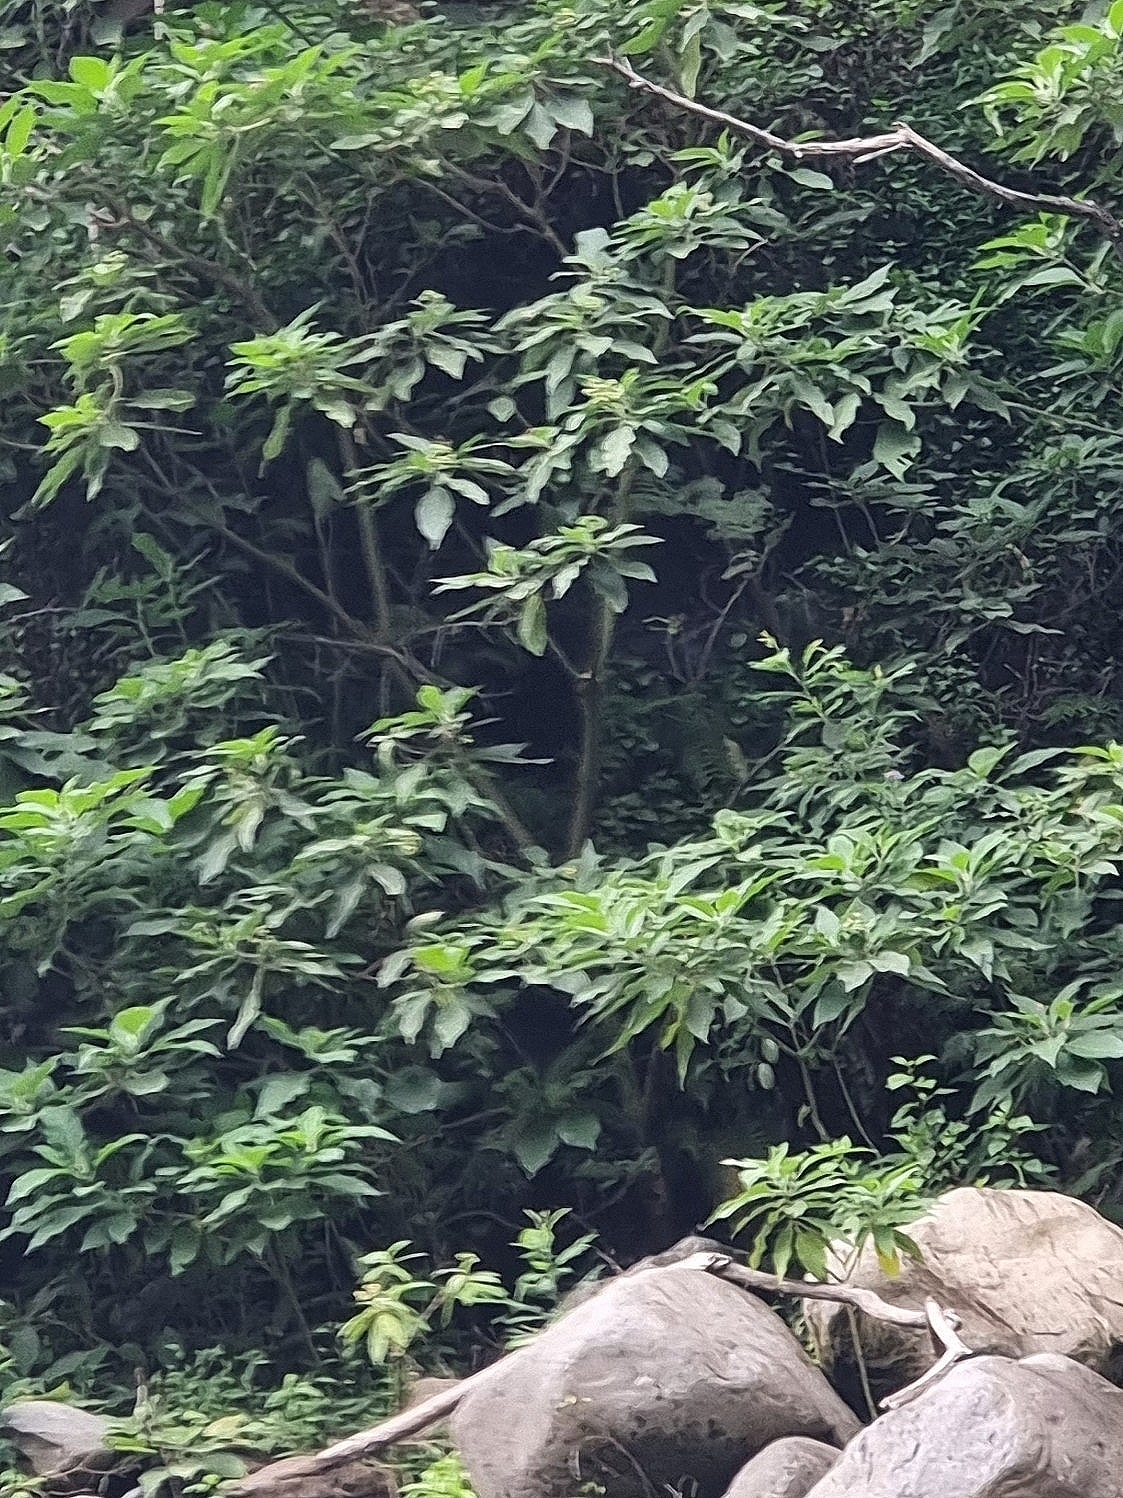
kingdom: Plantae
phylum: Tracheophyta
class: Magnoliopsida
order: Solanales
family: Solanaceae
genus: Solanum
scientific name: Solanum mauritianum
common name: Earleaf nightshade
